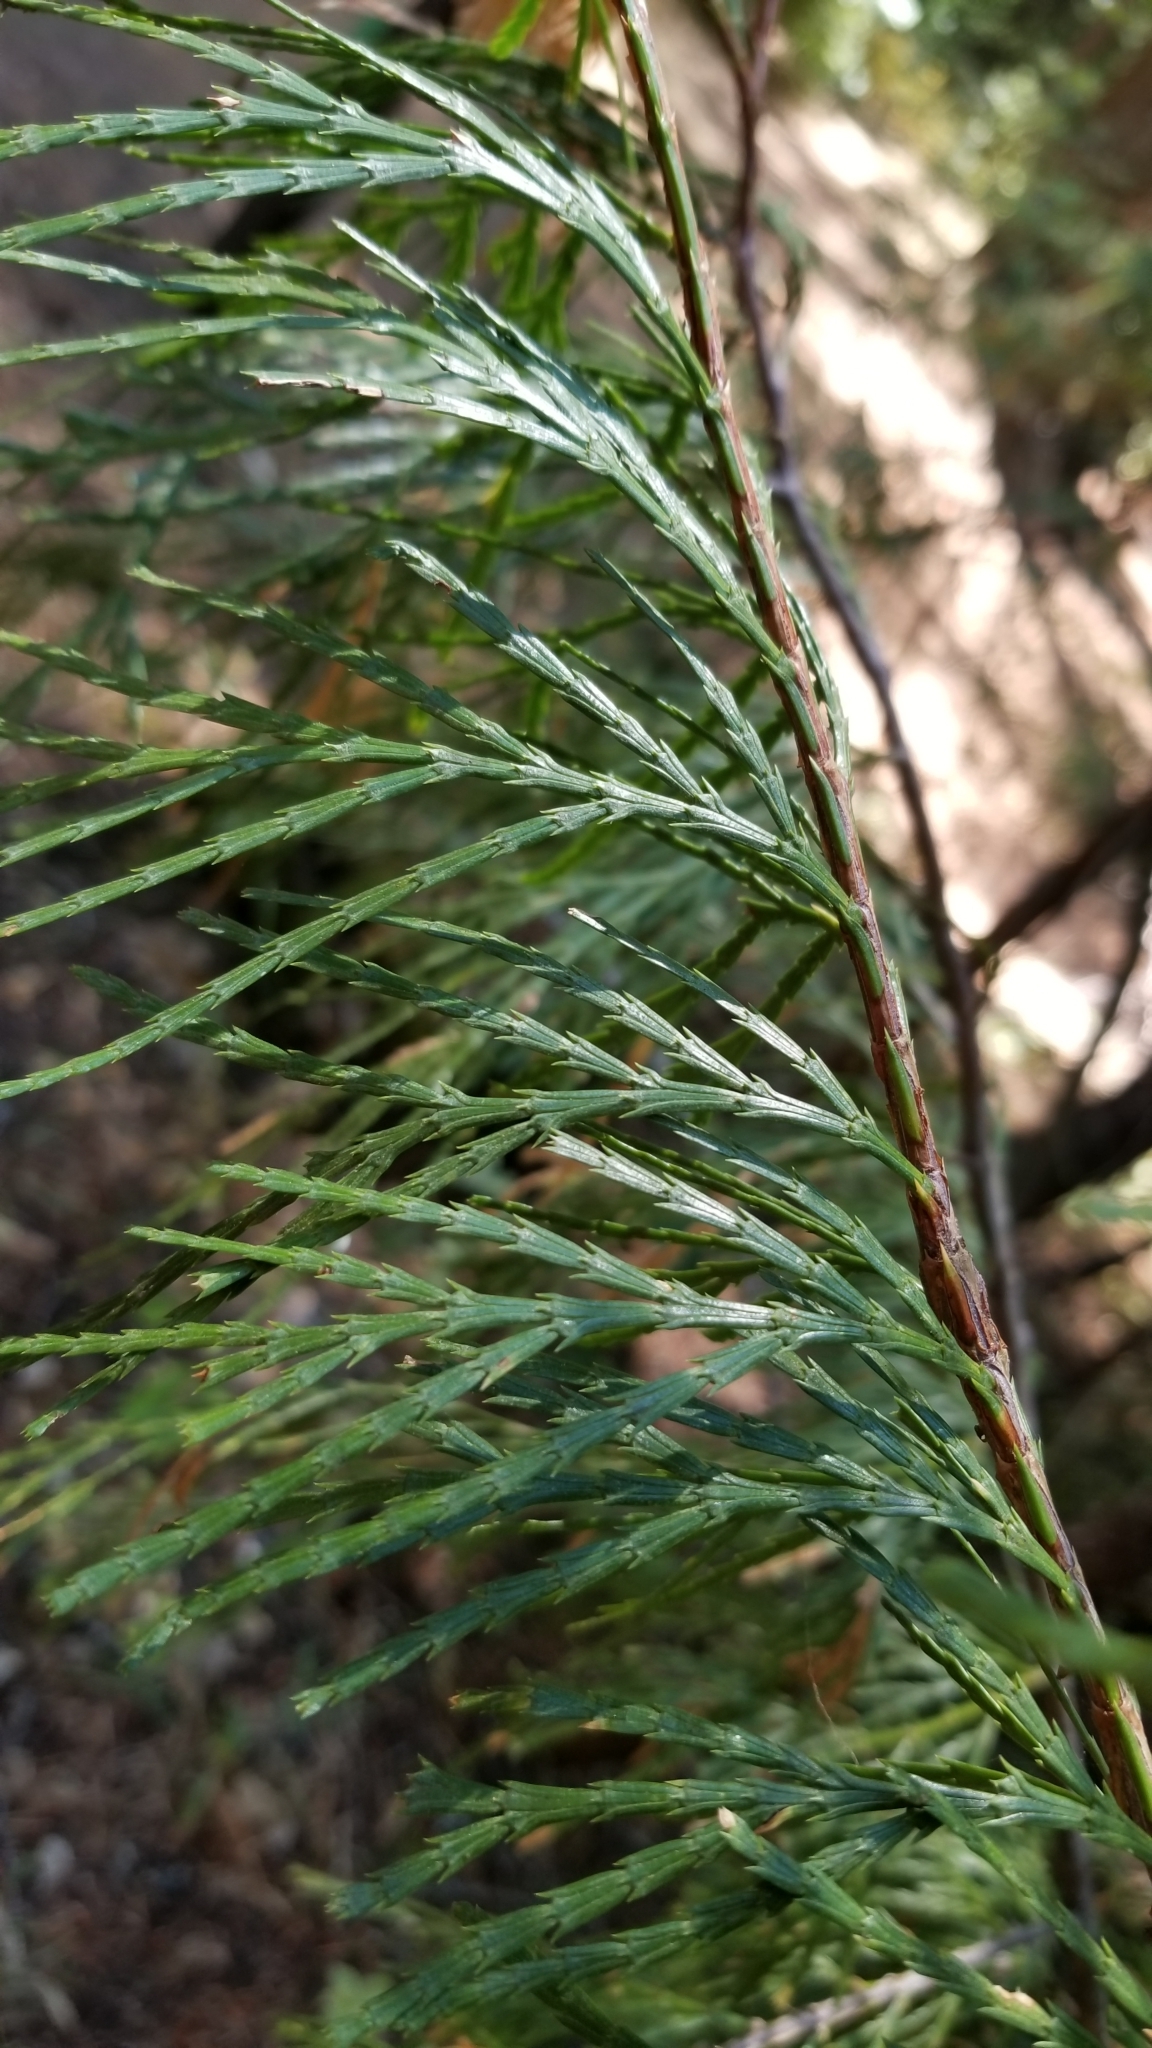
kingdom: Plantae
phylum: Tracheophyta
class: Pinopsida
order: Pinales
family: Cupressaceae
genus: Calocedrus
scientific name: Calocedrus decurrens
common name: Californian incense-cedar
